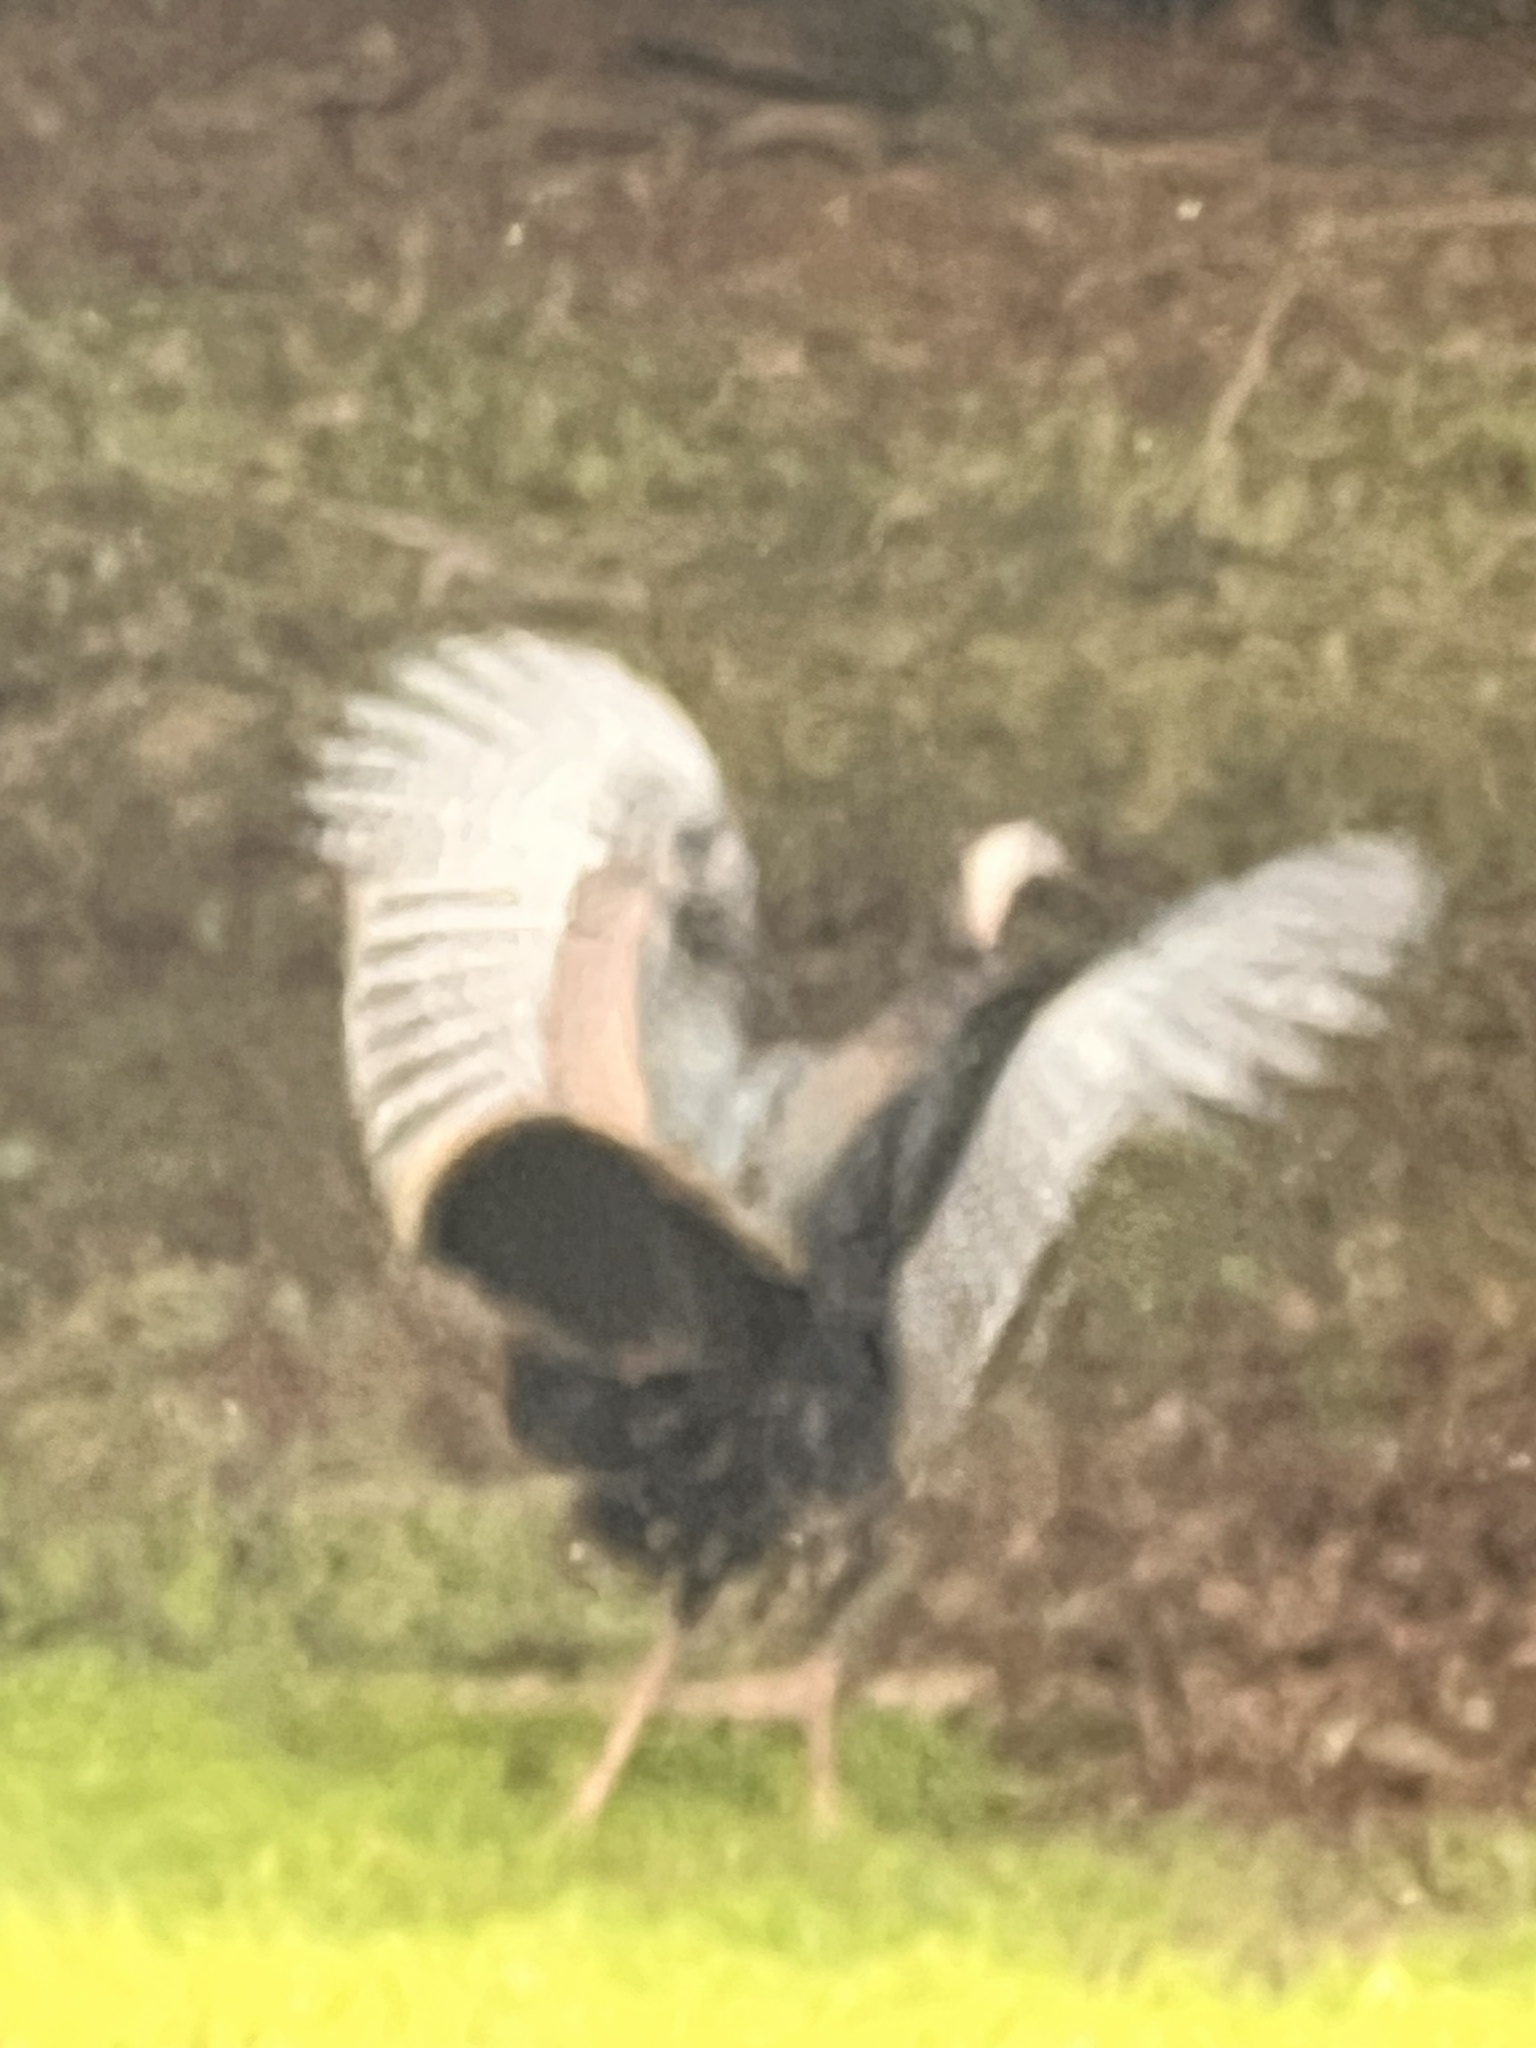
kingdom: Animalia
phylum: Chordata
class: Aves
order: Galliformes
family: Phasianidae
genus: Meleagris
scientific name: Meleagris gallopavo
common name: Wild turkey
